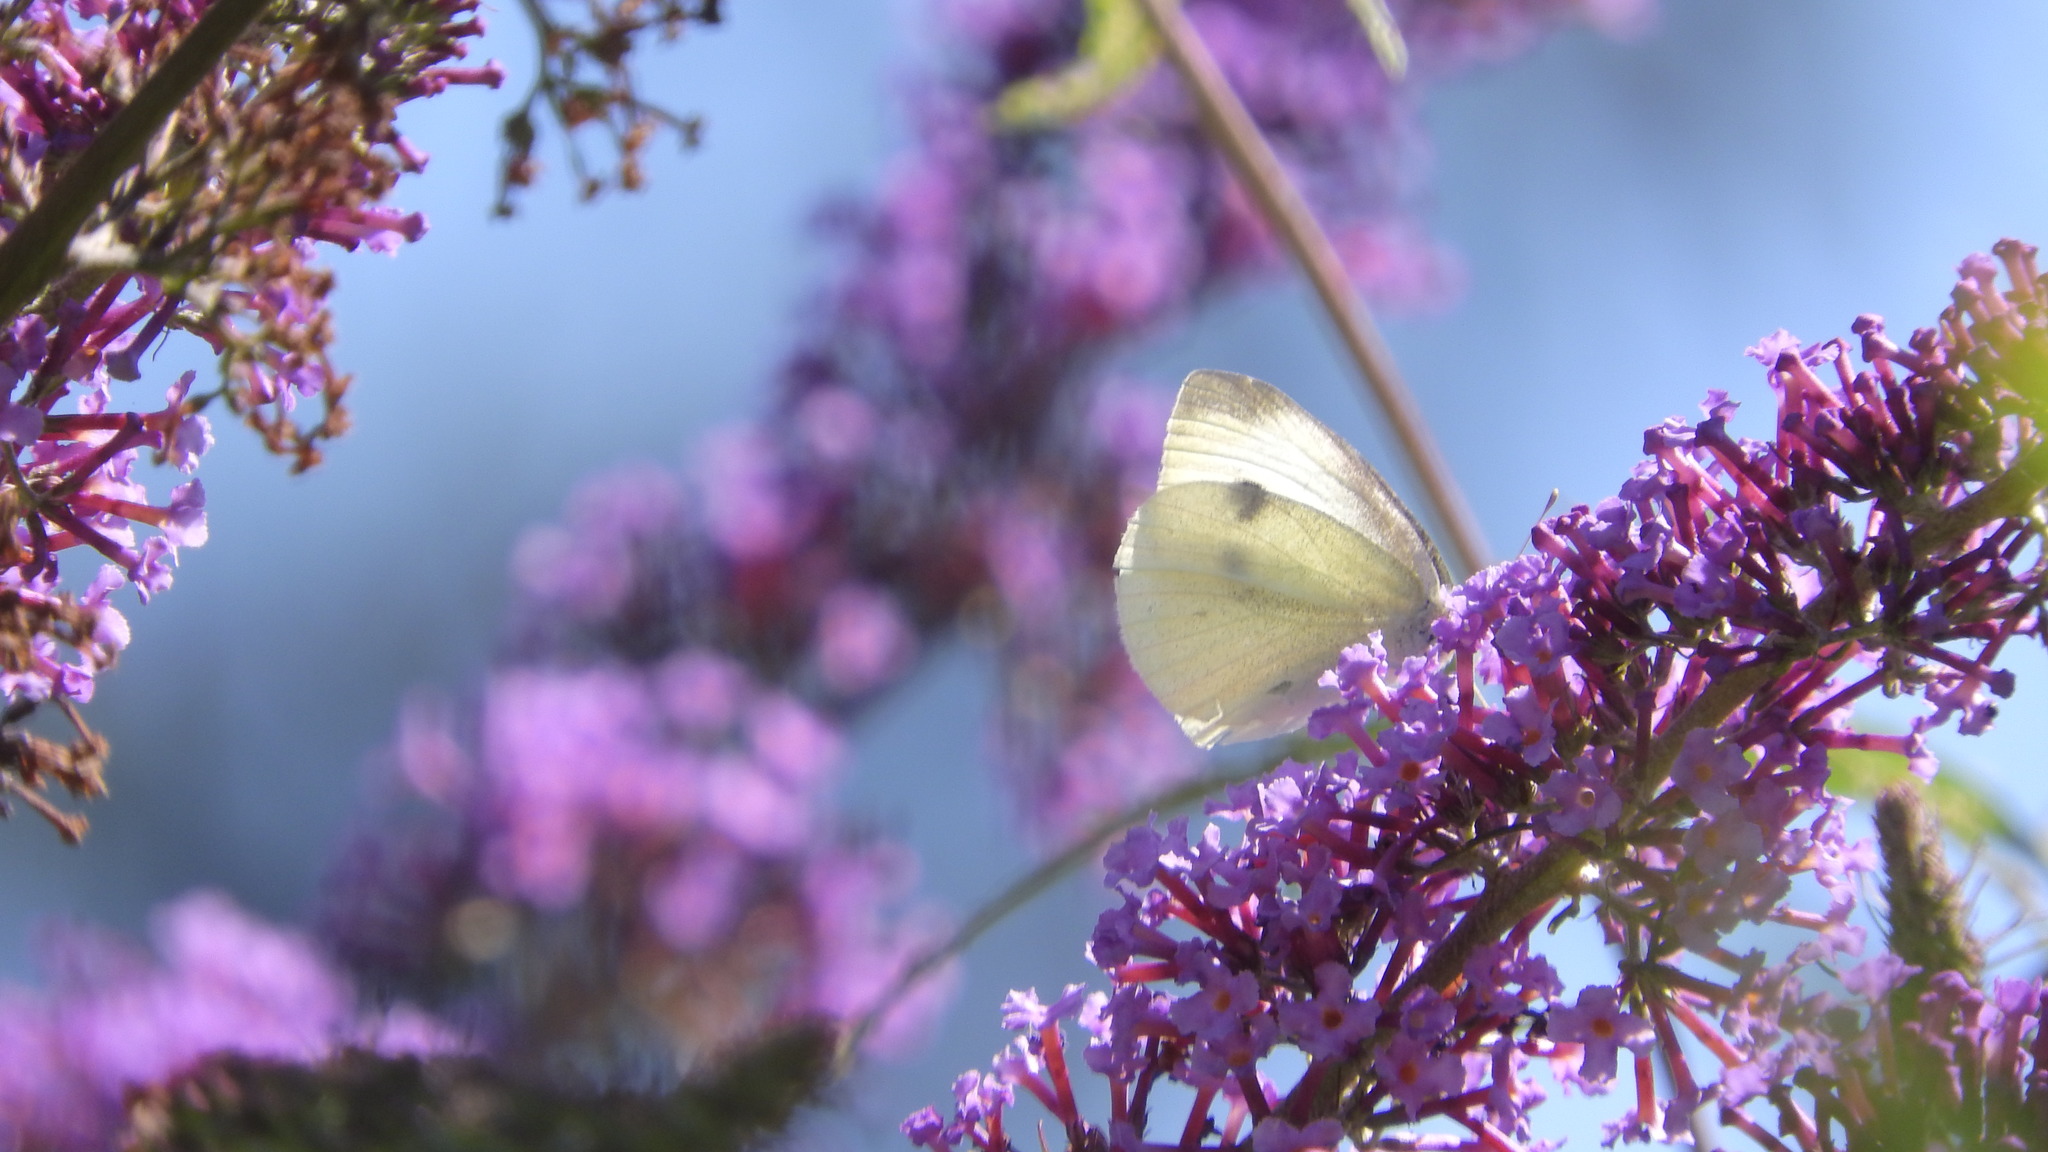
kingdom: Animalia
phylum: Arthropoda
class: Insecta
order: Lepidoptera
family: Pieridae
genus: Pieris
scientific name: Pieris rapae
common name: Small white
